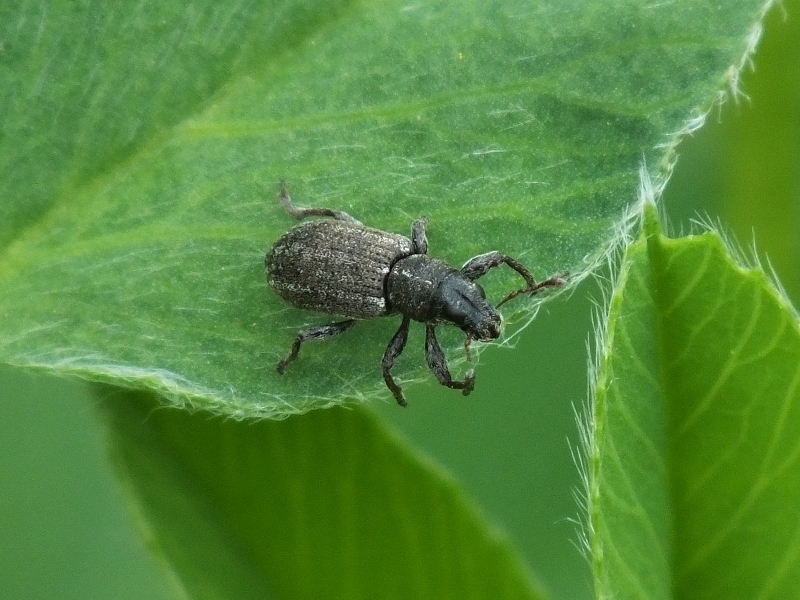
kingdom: Animalia
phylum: Arthropoda
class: Insecta
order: Coleoptera
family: Curculionidae
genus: Sitona
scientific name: Sitona inops
